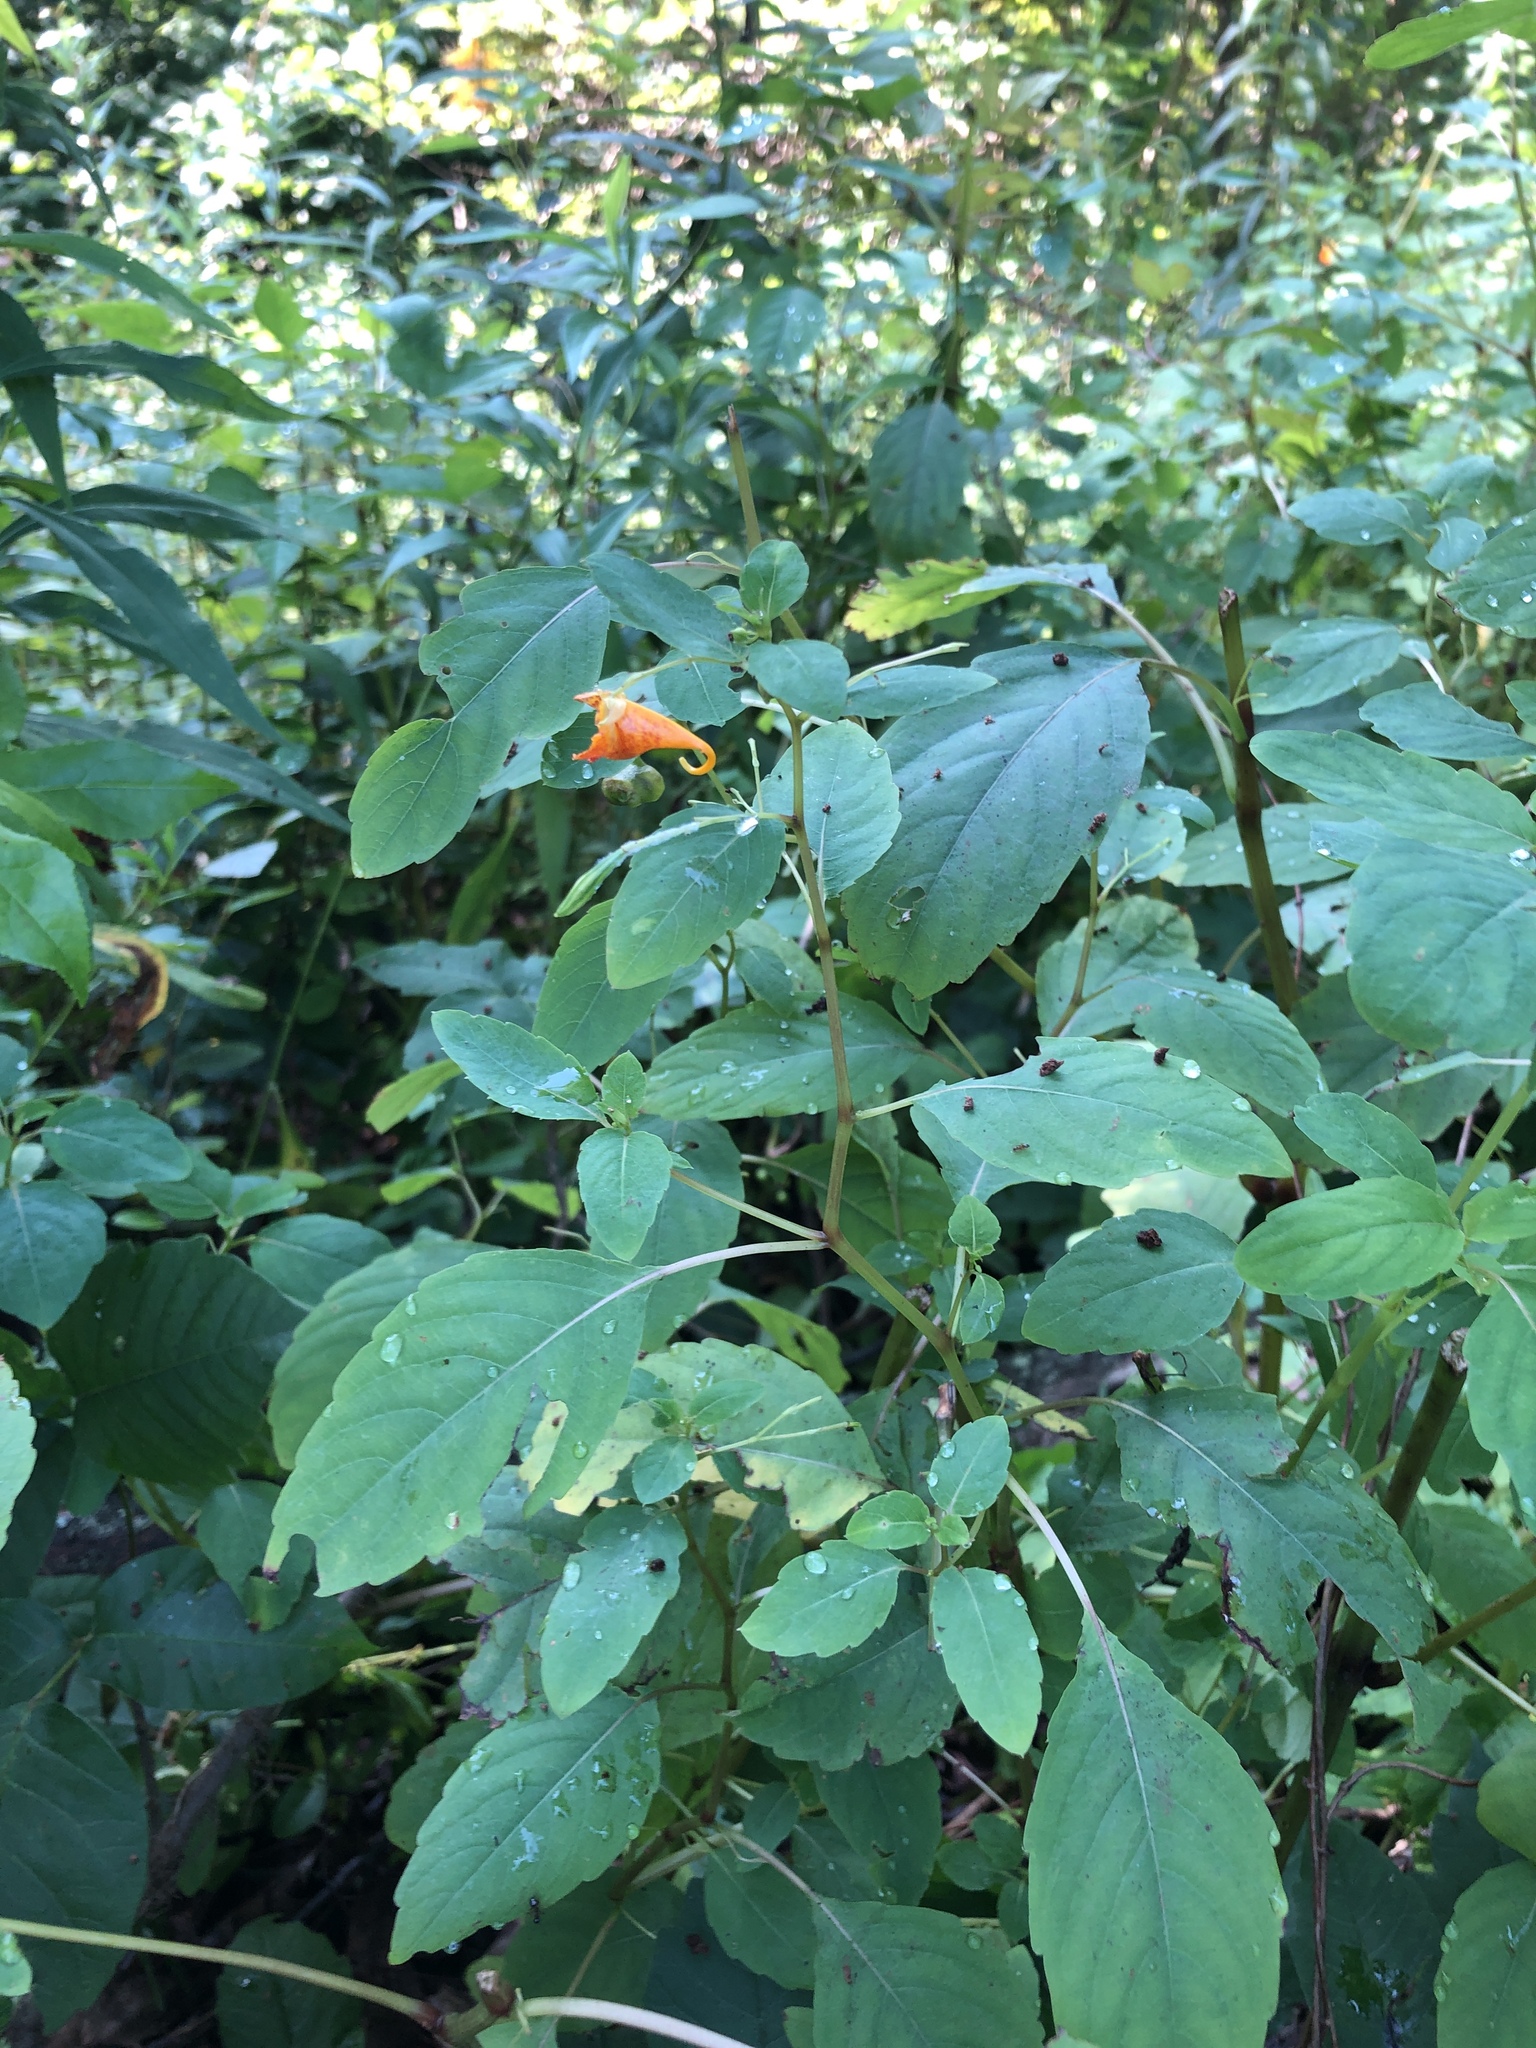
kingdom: Plantae
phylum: Tracheophyta
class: Magnoliopsida
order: Ericales
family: Balsaminaceae
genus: Impatiens
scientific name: Impatiens capensis
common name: Orange balsam
